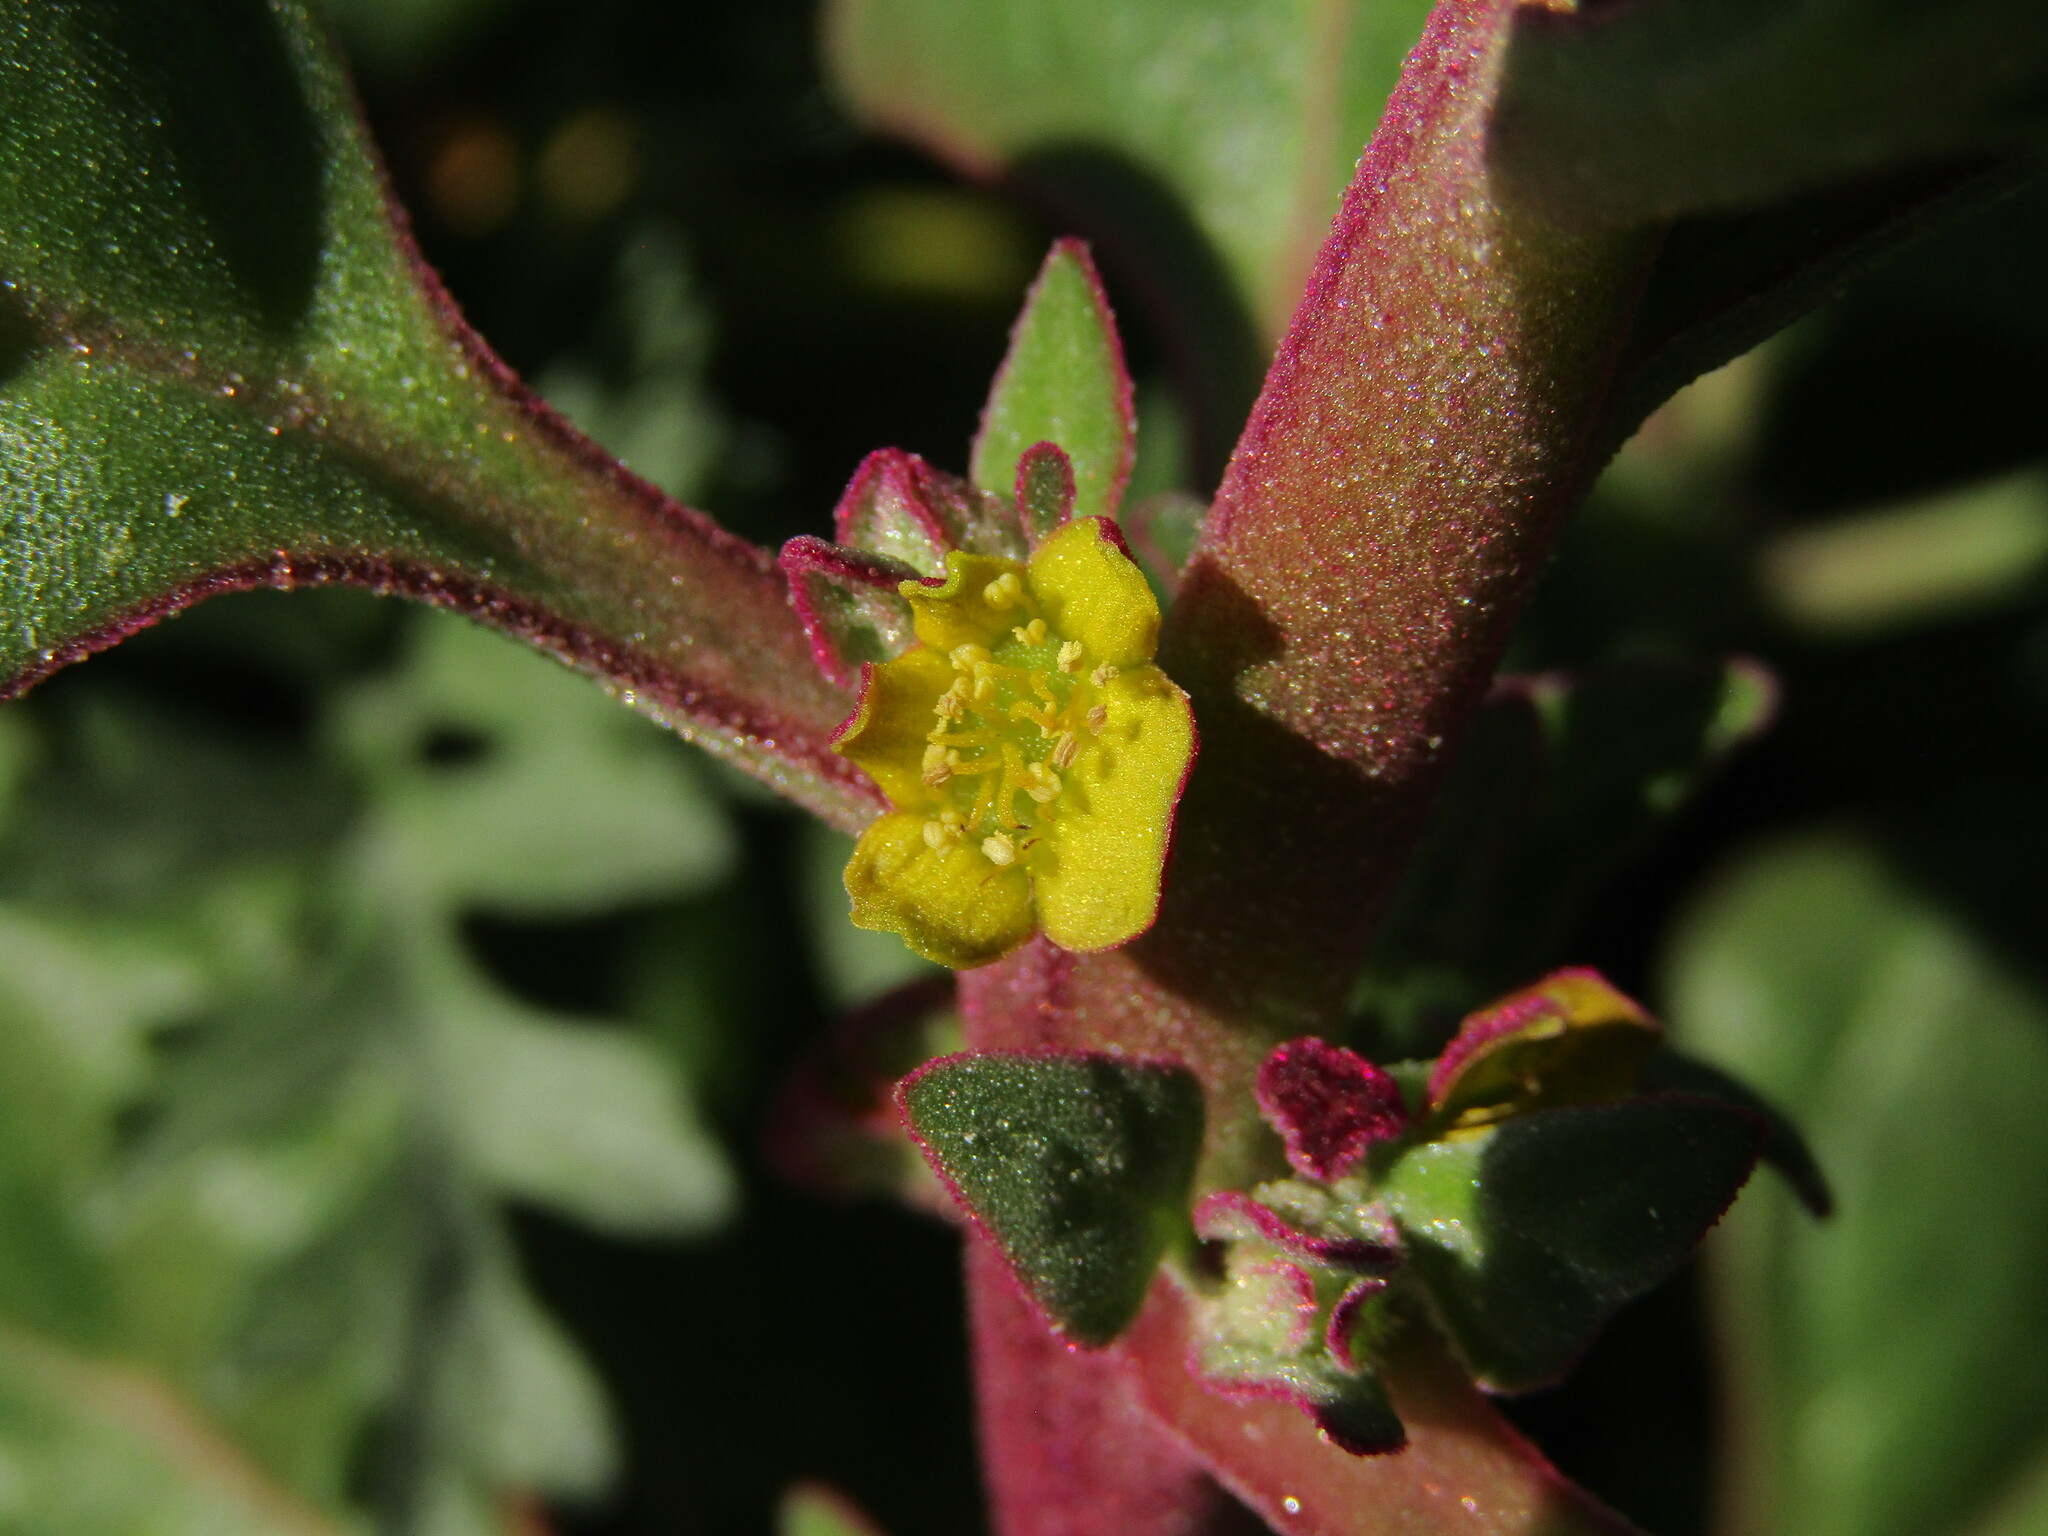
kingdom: Plantae
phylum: Tracheophyta
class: Magnoliopsida
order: Caryophyllales
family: Aizoaceae
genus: Tetragonia
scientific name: Tetragonia tetragonoides
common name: New zealand-spinach
